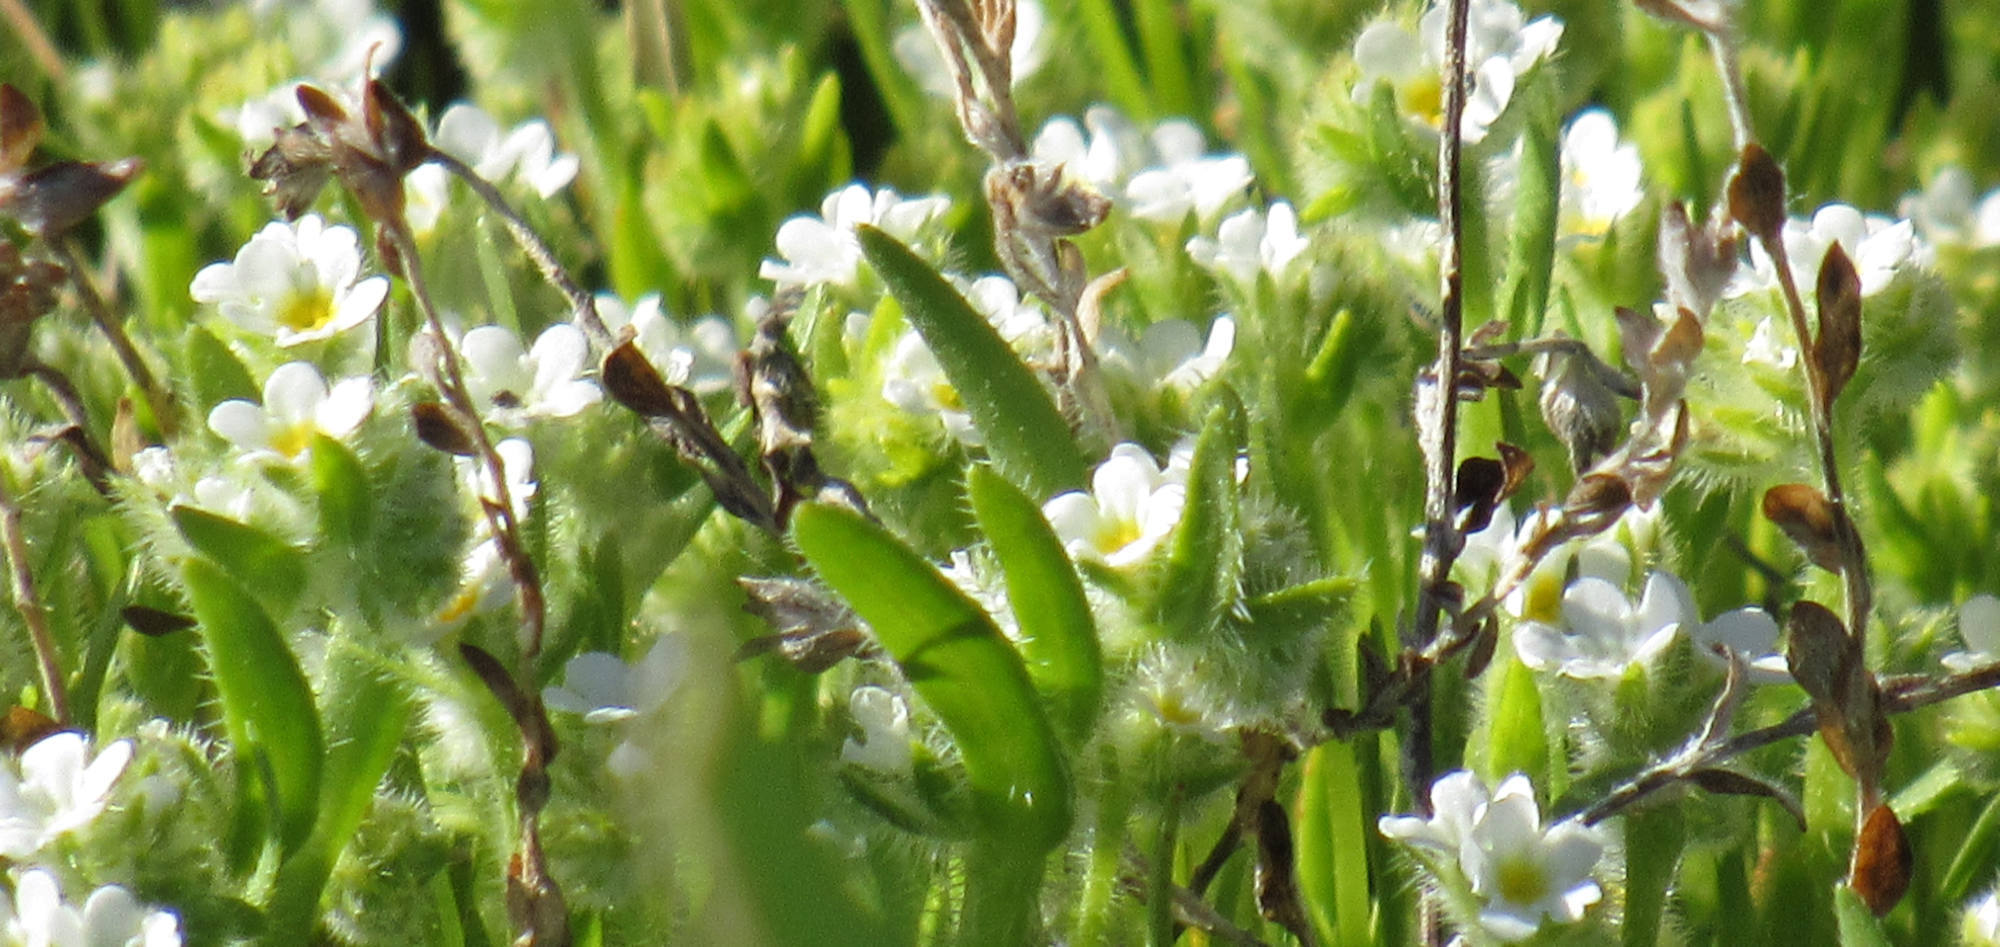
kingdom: Plantae
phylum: Tracheophyta
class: Magnoliopsida
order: Boraginales
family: Boraginaceae
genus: Plagiobothrys
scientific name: Plagiobothrys salsus
